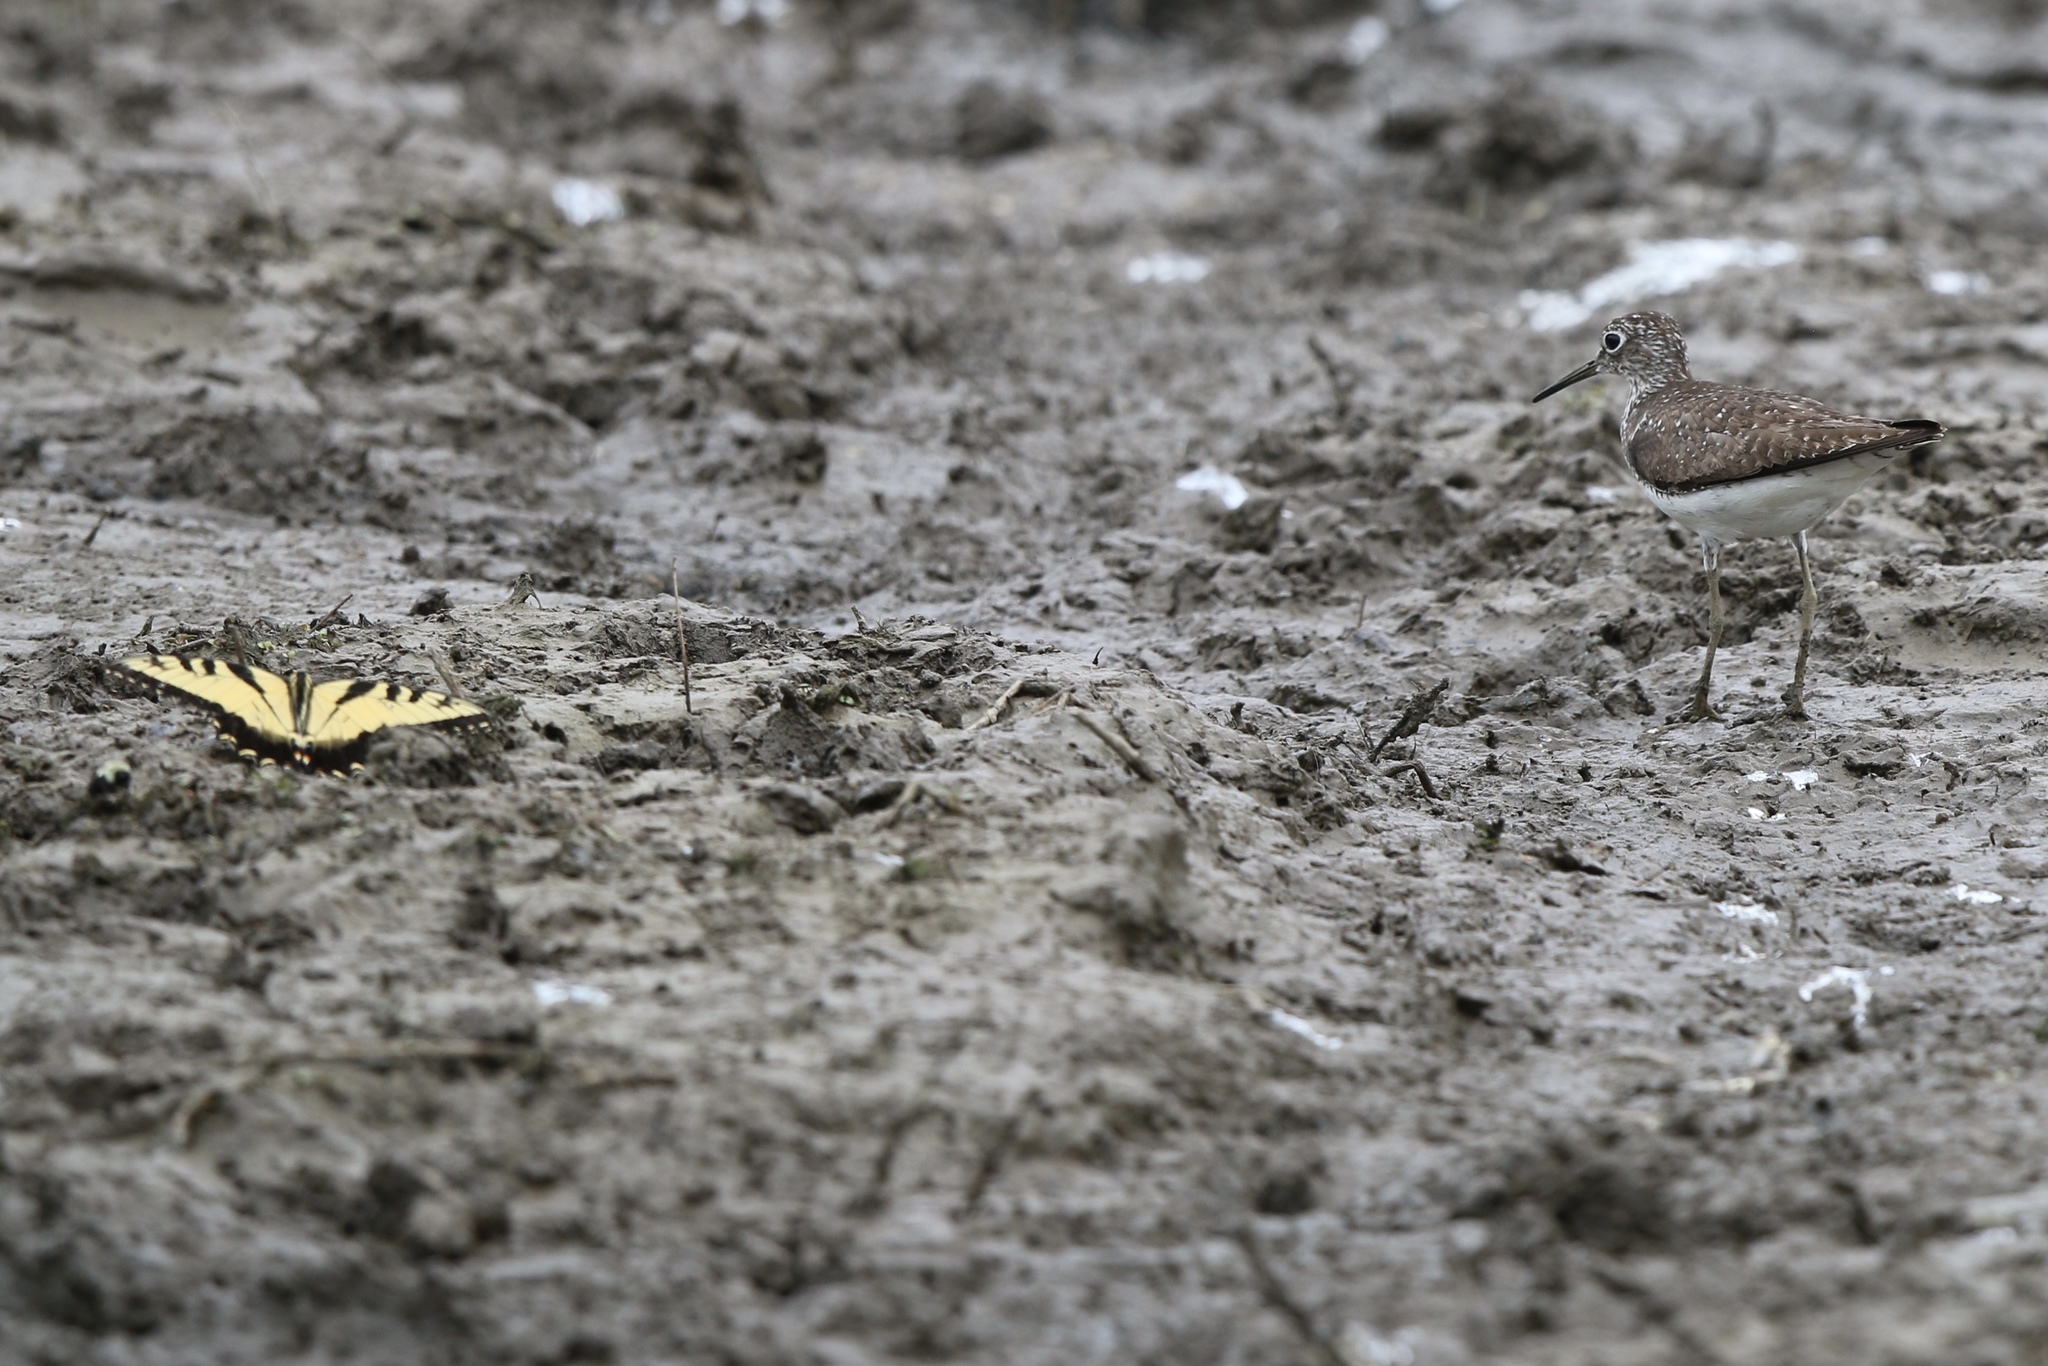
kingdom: Animalia
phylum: Chordata
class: Aves
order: Charadriiformes
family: Scolopacidae
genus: Tringa
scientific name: Tringa solitaria
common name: Solitary sandpiper
